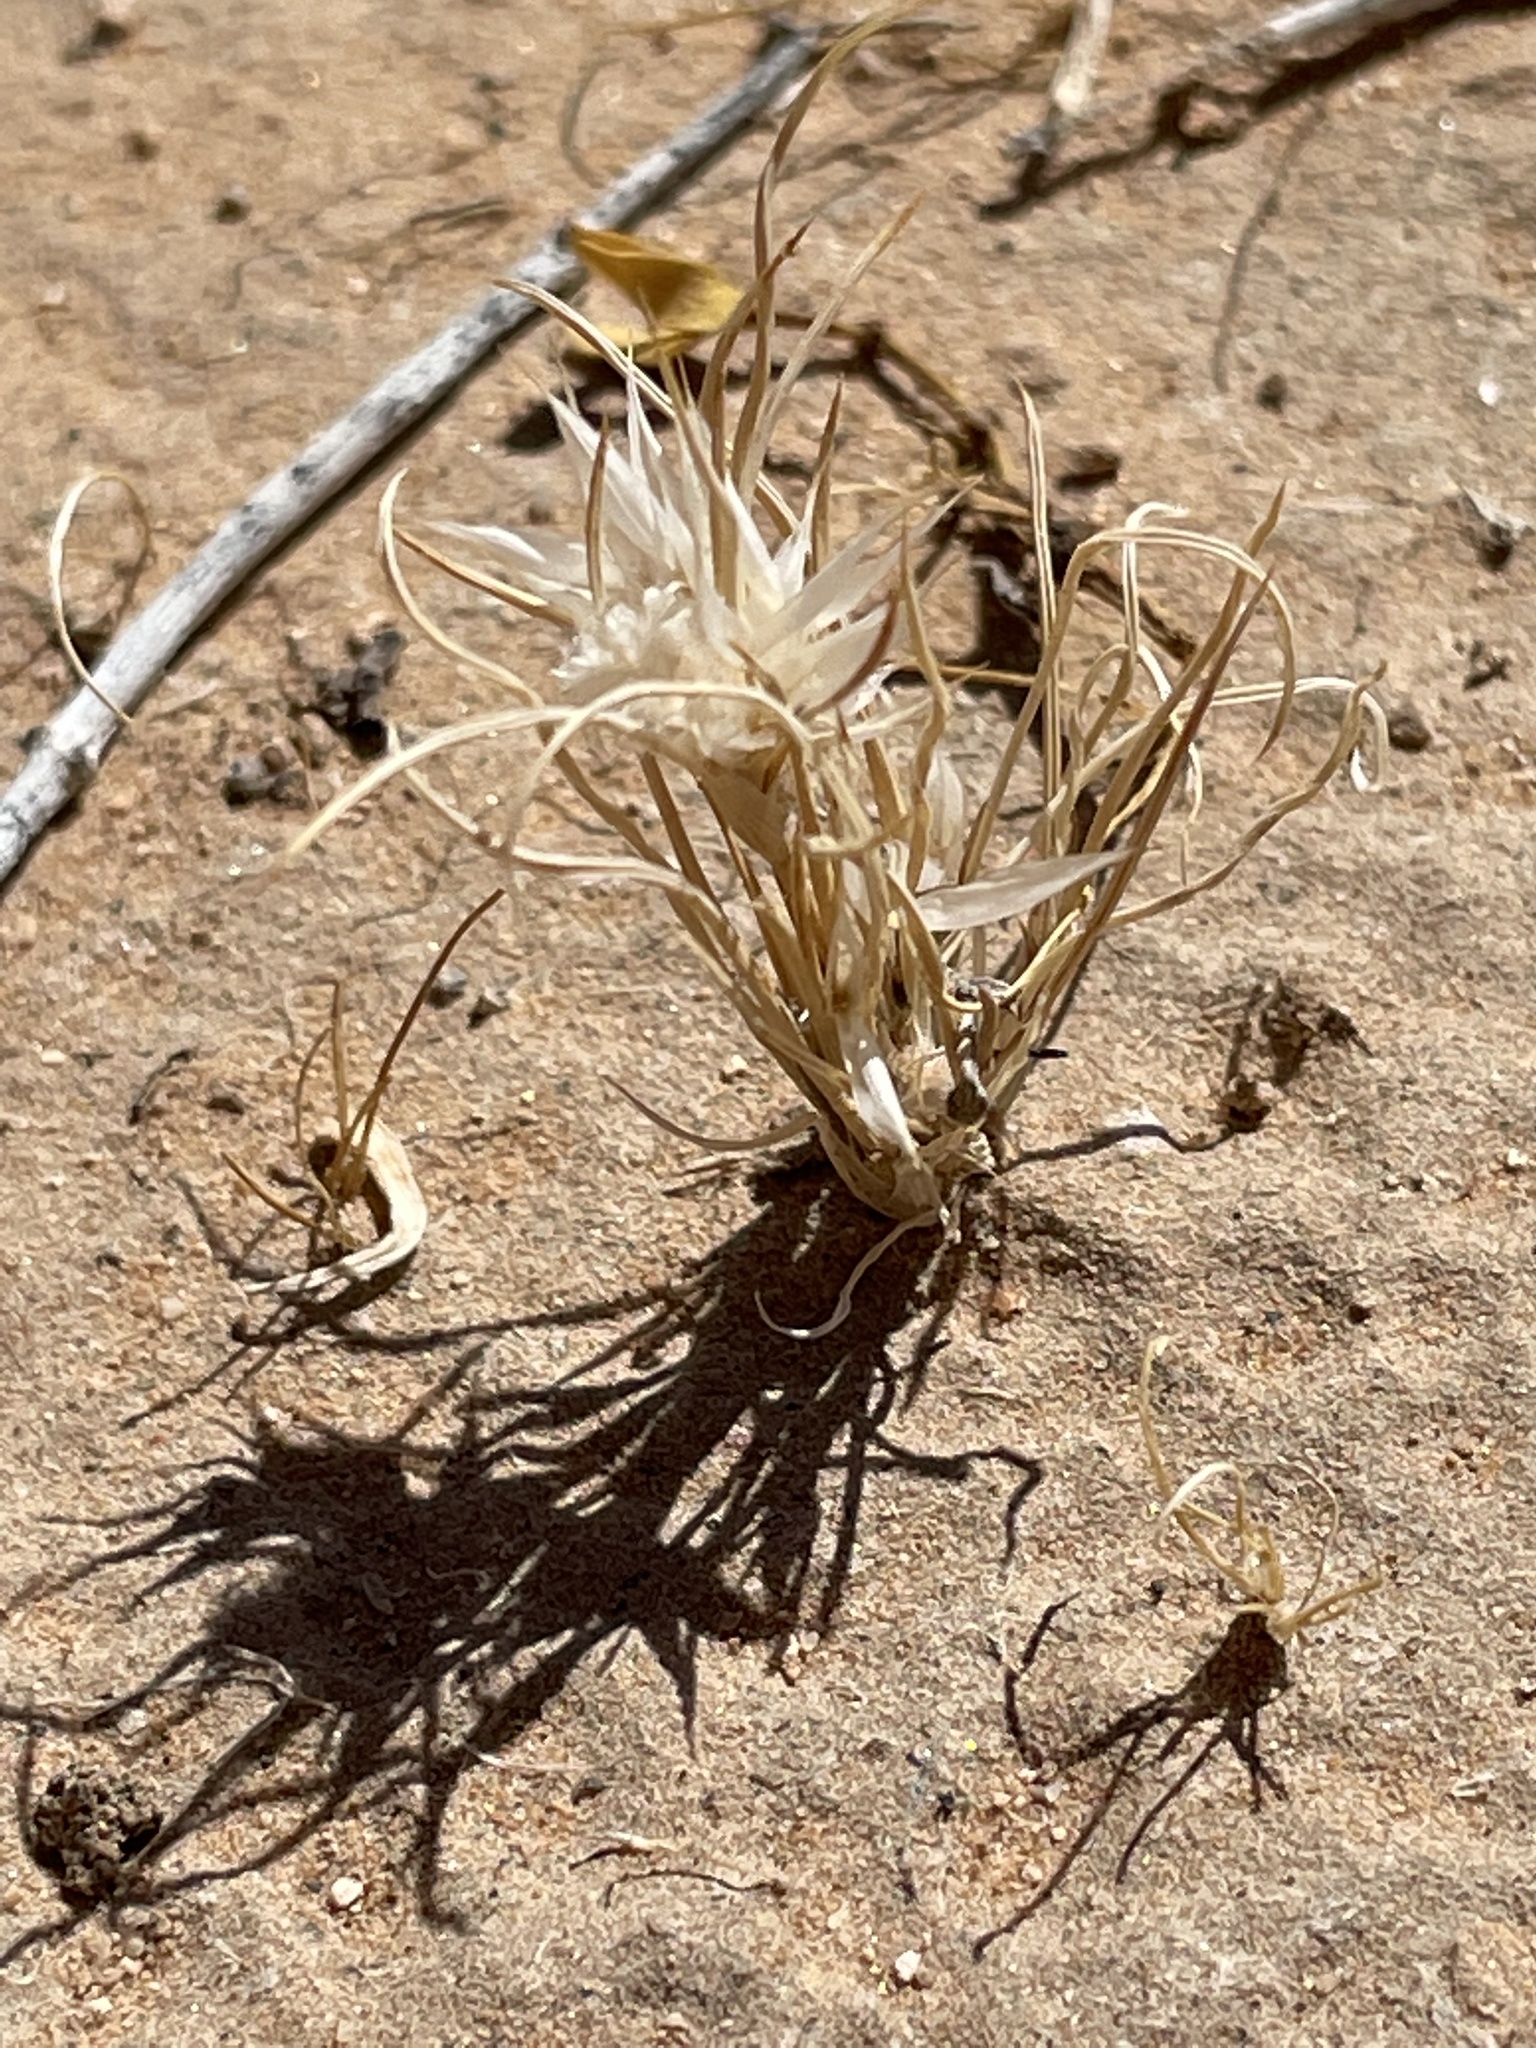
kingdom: Plantae
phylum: Tracheophyta
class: Liliopsida
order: Poales
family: Poaceae
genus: Dasyochloa
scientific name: Dasyochloa pulchella
